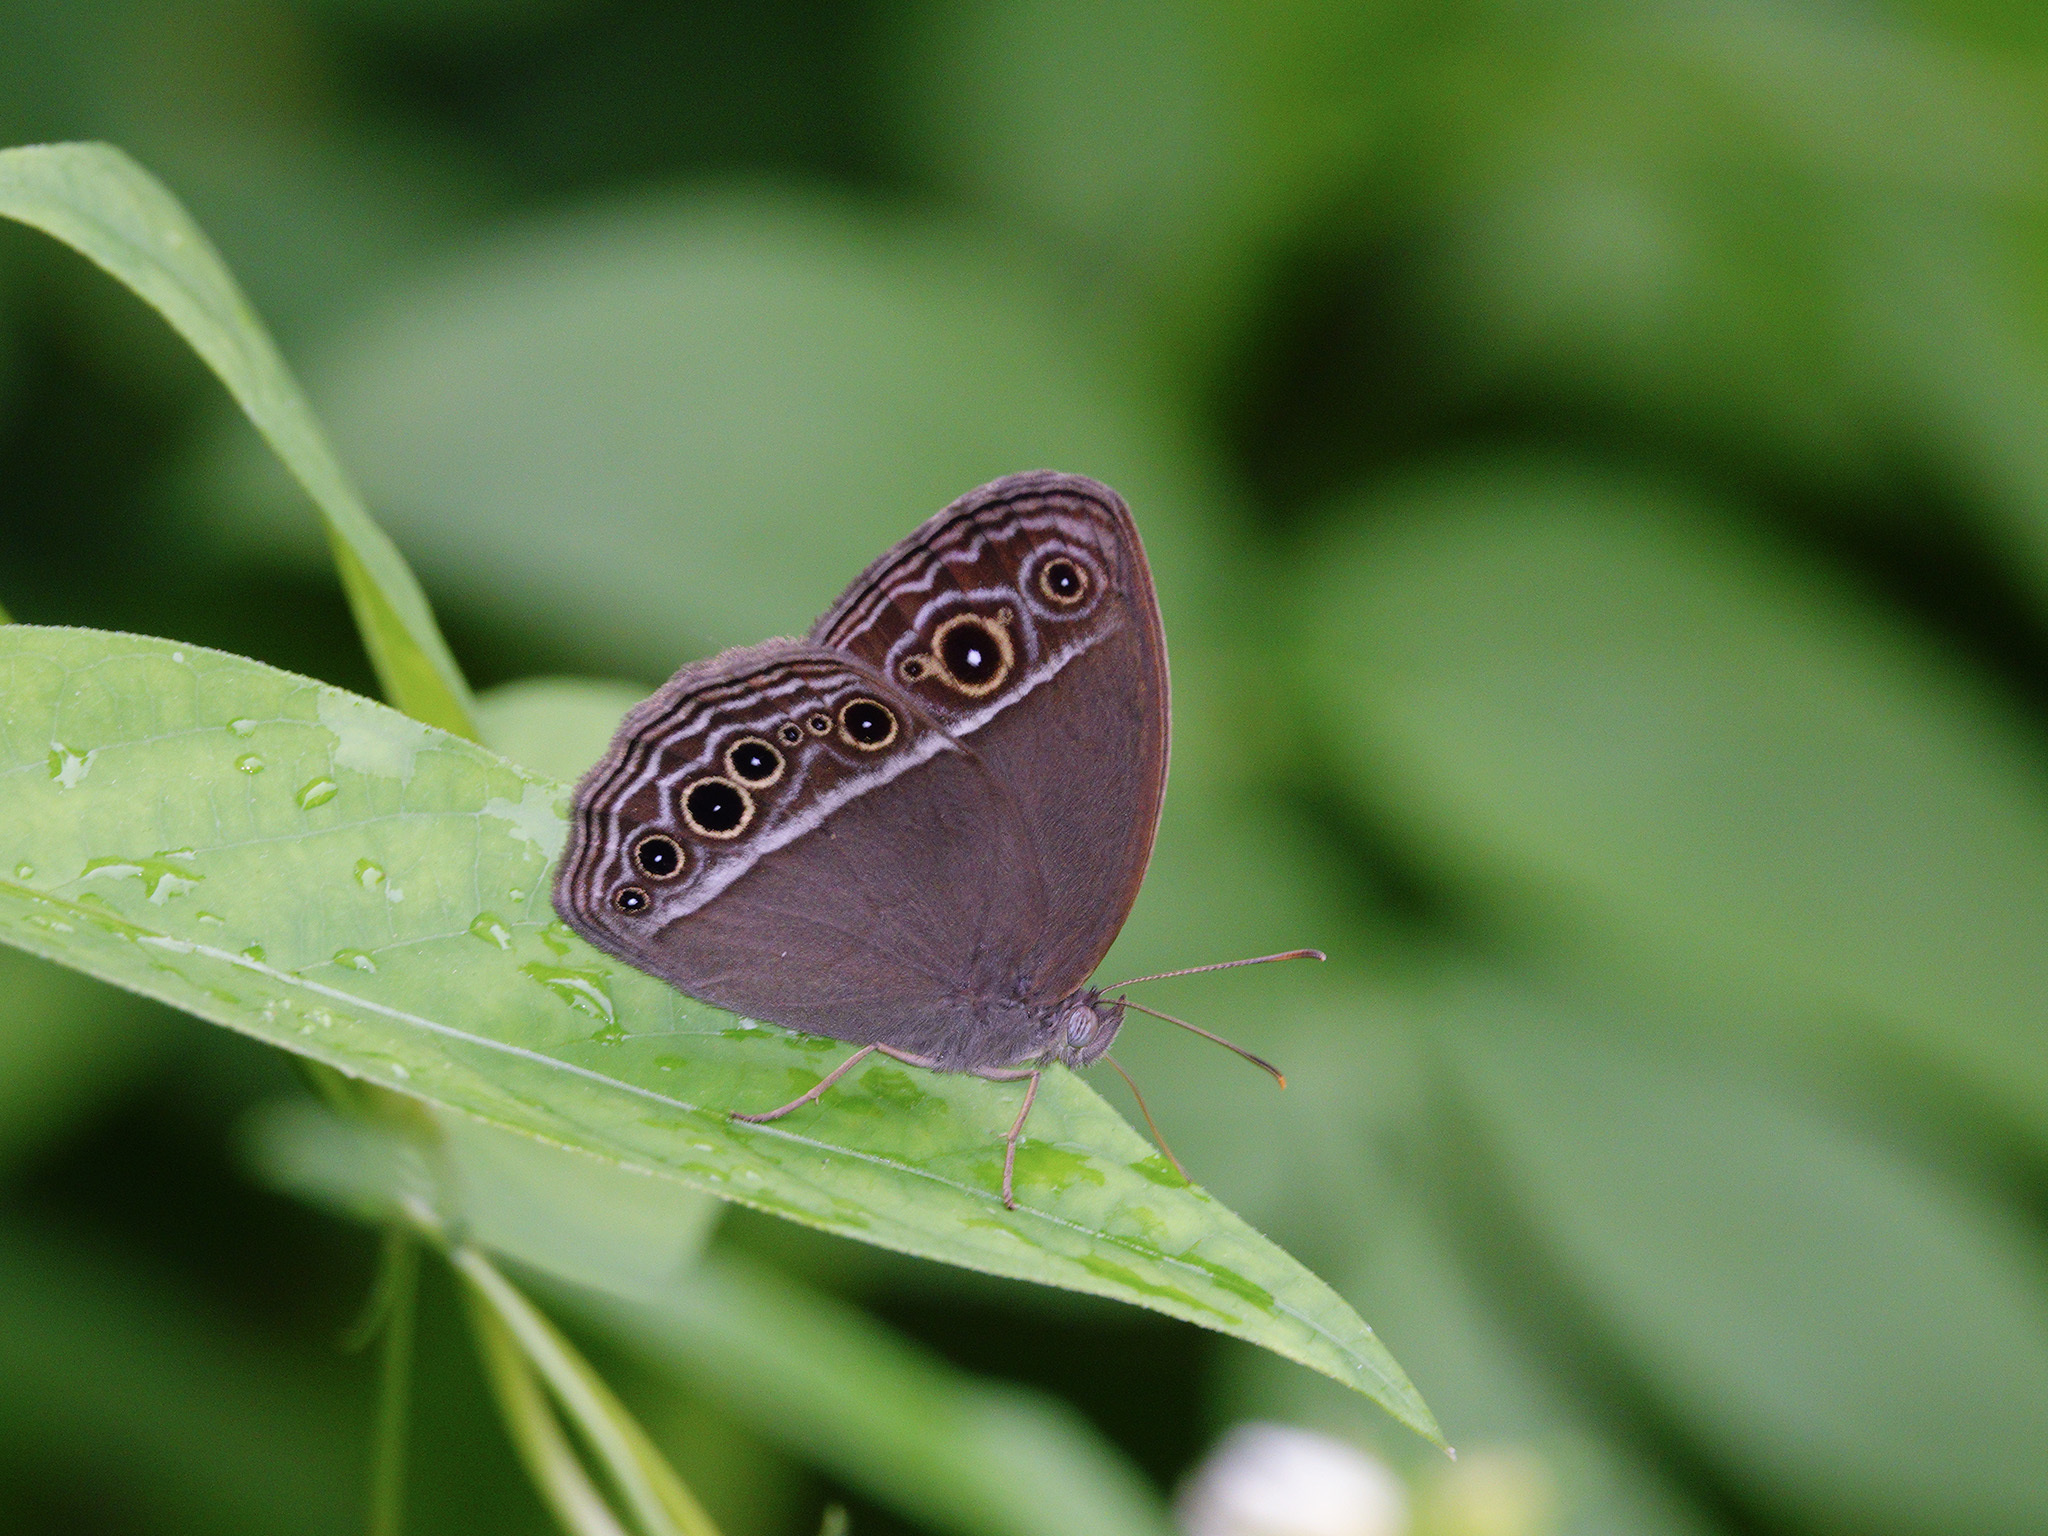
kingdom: Animalia
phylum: Arthropoda
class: Insecta
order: Lepidoptera
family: Nymphalidae
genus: Mycalesis
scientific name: Mycalesis mineus
